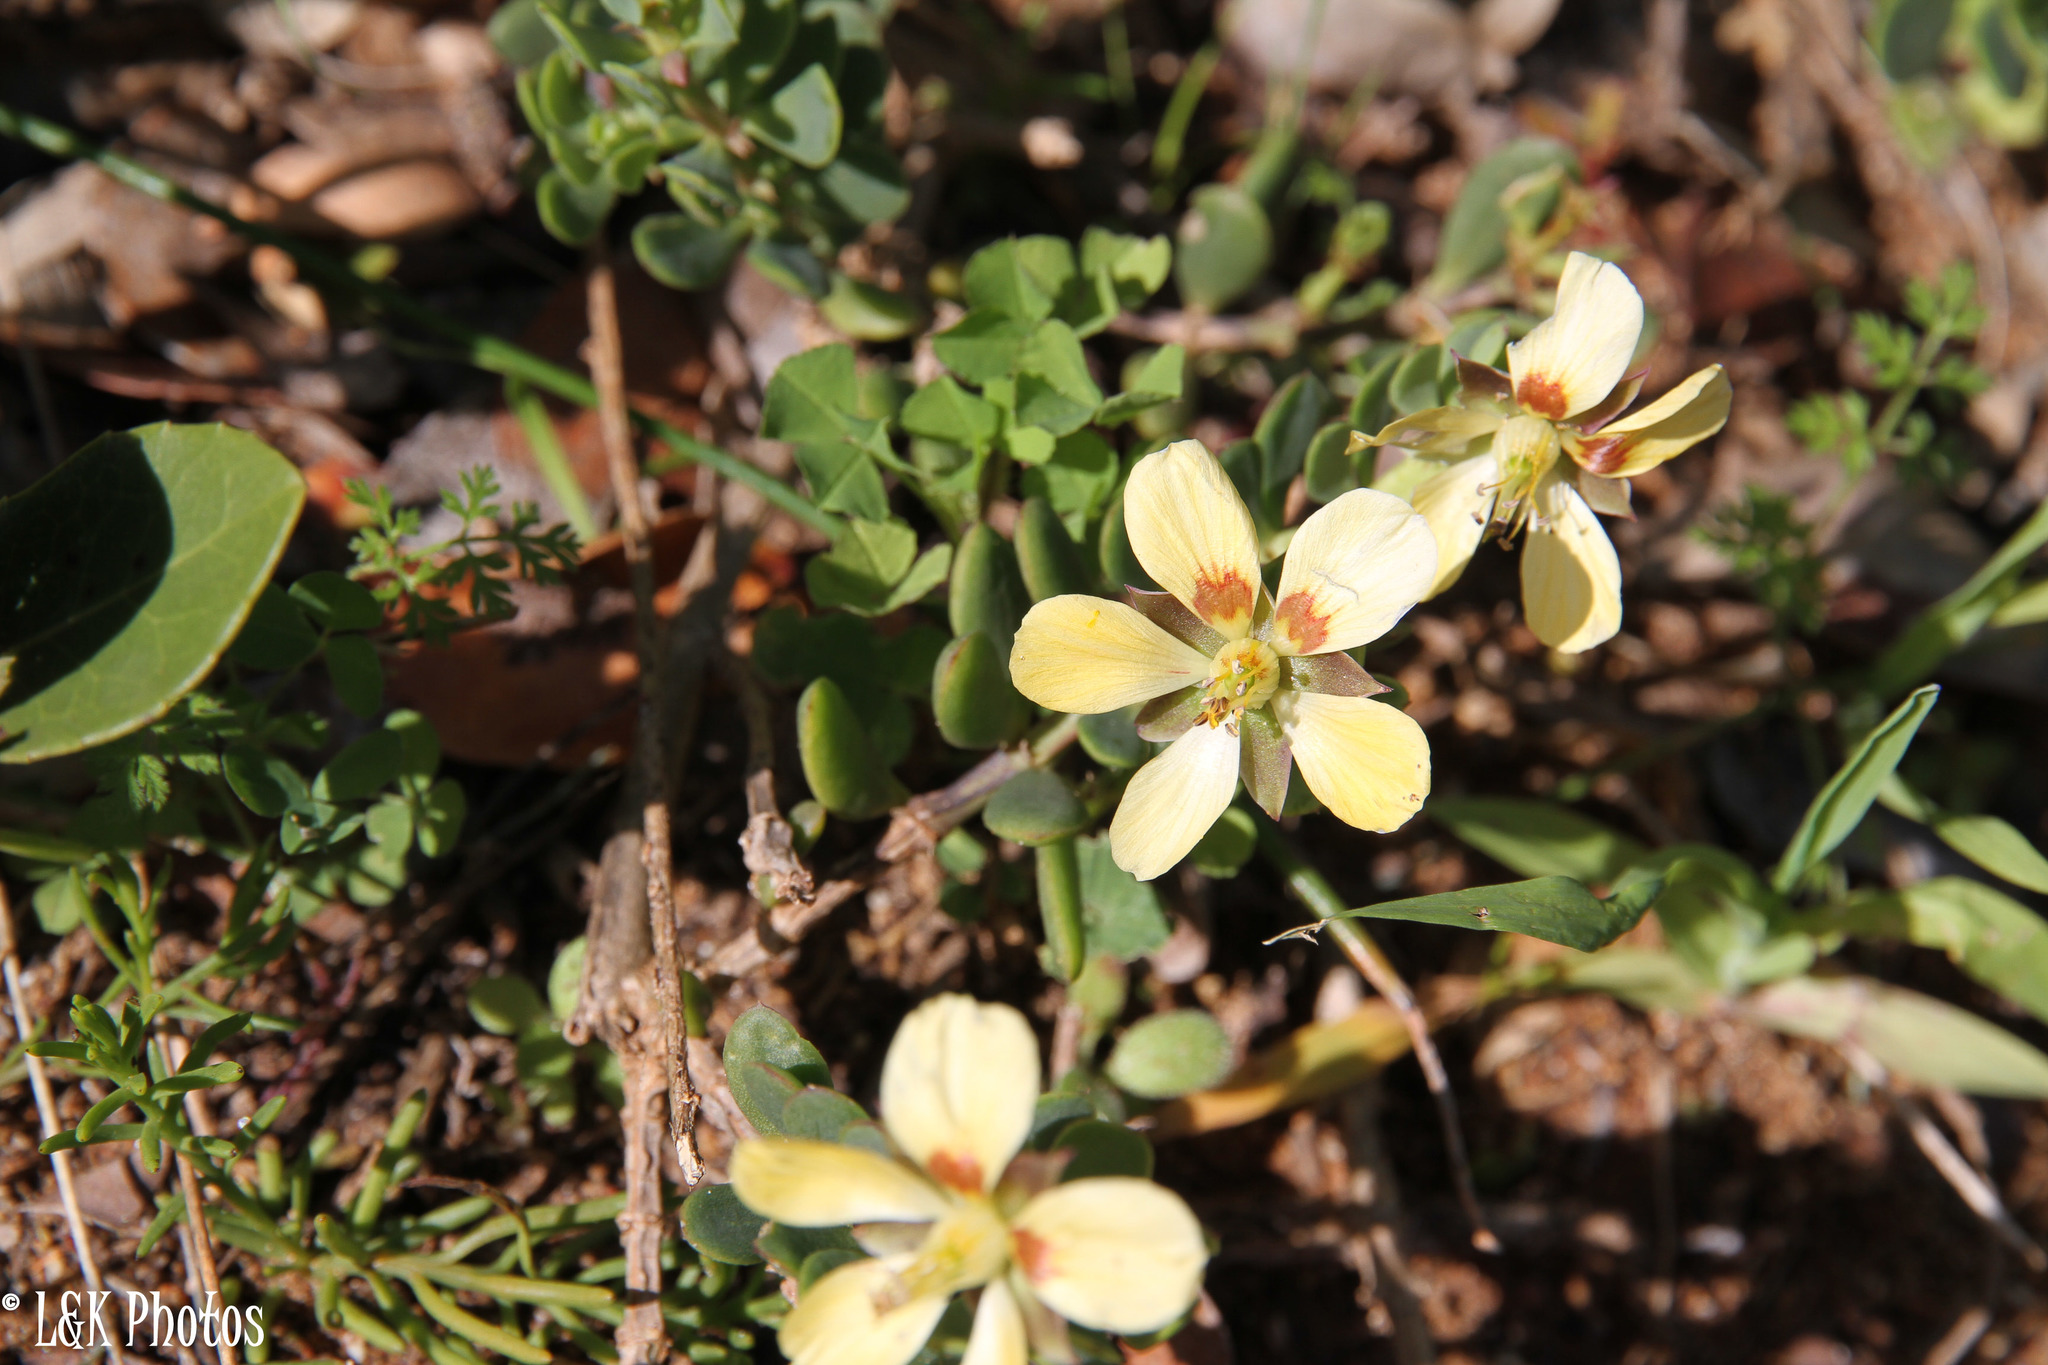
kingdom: Plantae
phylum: Tracheophyta
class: Magnoliopsida
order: Zygophyllales
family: Zygophyllaceae
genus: Roepera
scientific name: Roepera flexuosa
